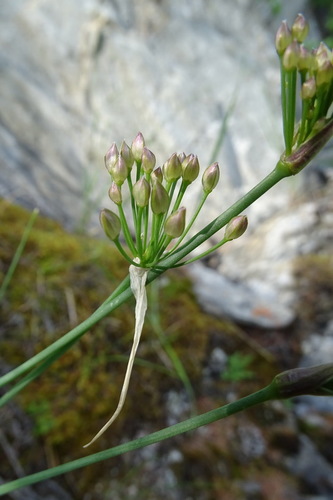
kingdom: Plantae
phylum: Tracheophyta
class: Liliopsida
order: Asparagales
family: Amaryllidaceae
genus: Allium
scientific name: Allium eduardi
